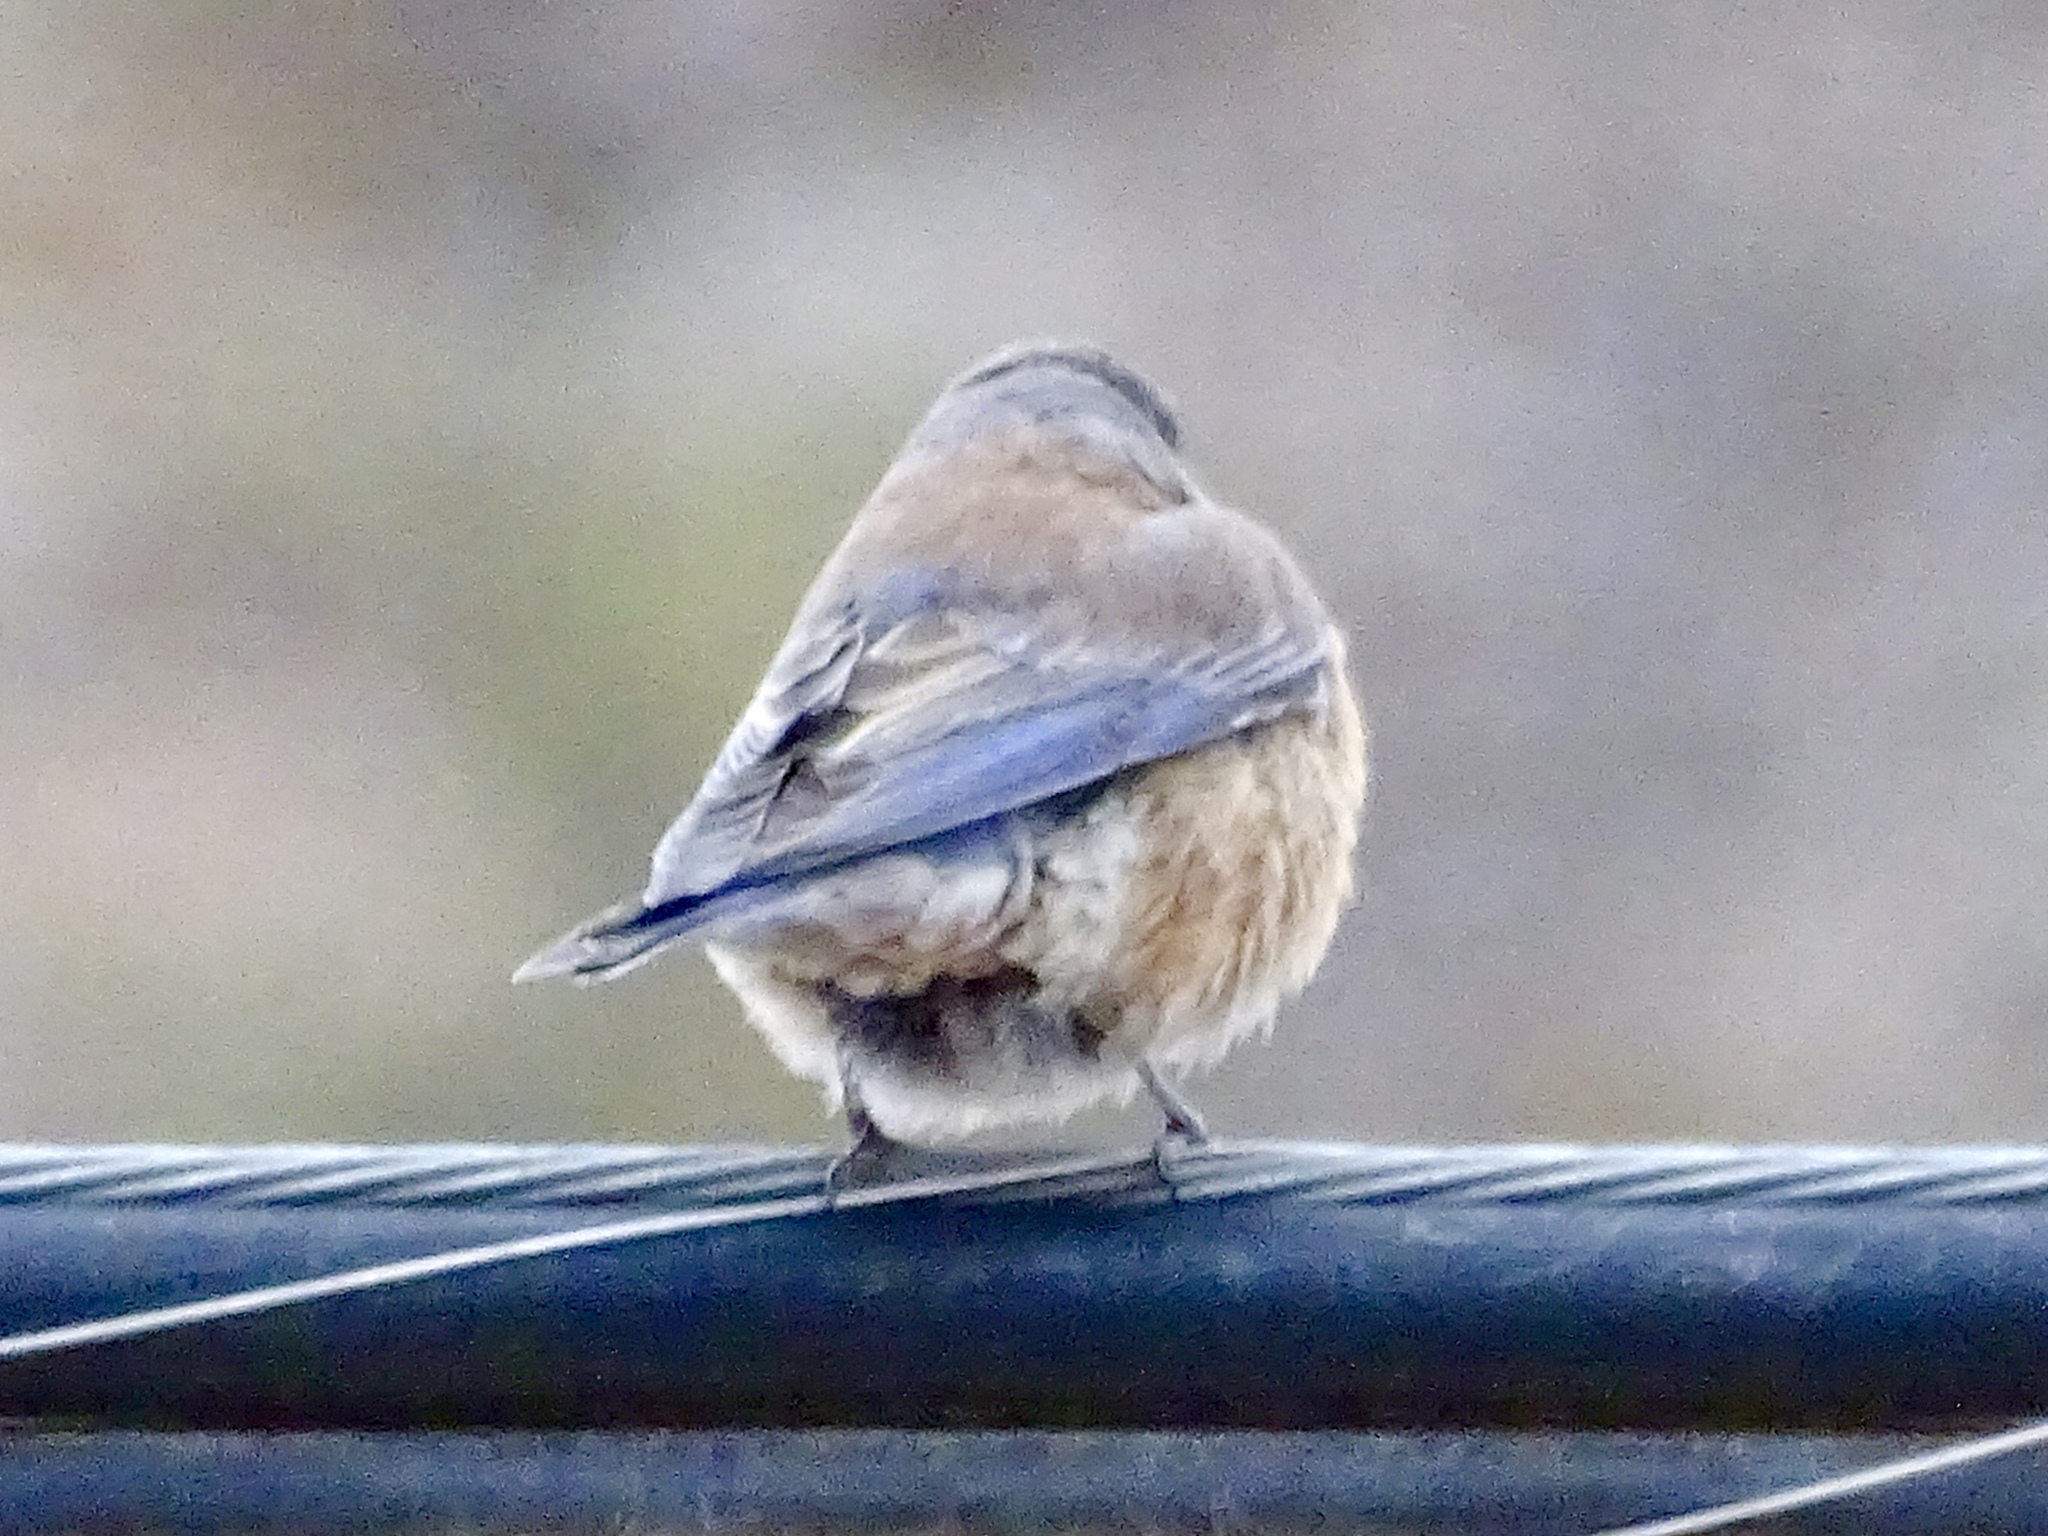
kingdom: Animalia
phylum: Chordata
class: Aves
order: Passeriformes
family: Turdidae
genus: Sialia
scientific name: Sialia mexicana
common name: Western bluebird
